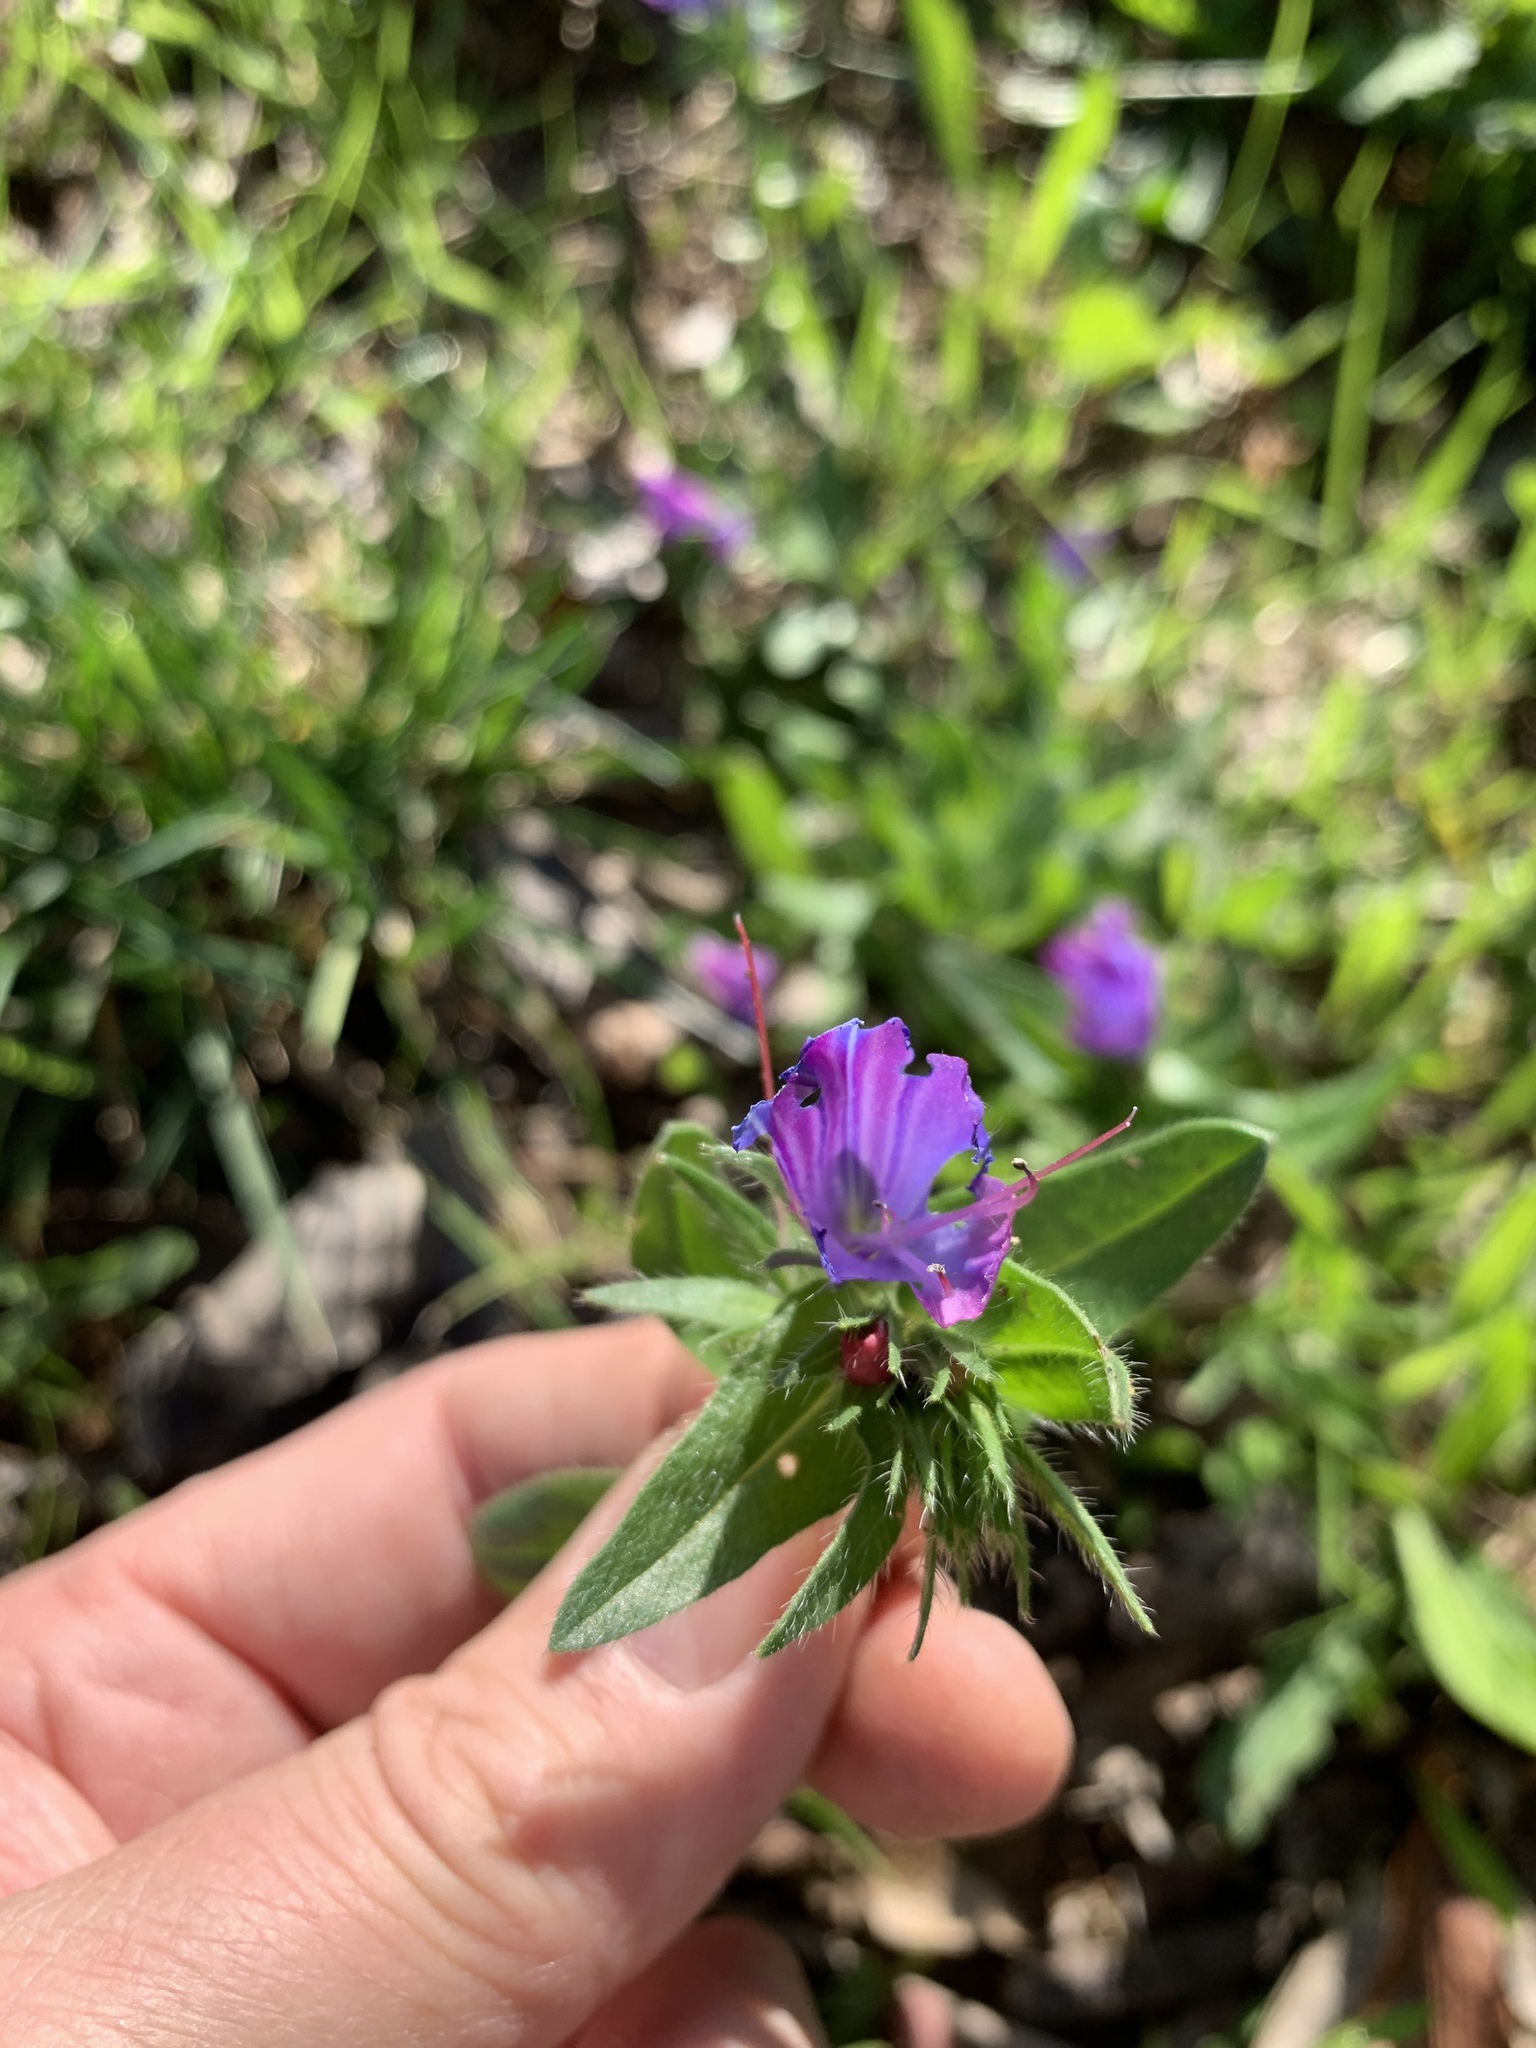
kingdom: Plantae
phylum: Tracheophyta
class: Magnoliopsida
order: Boraginales
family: Boraginaceae
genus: Echium
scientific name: Echium plantagineum
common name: Purple viper's-bugloss
